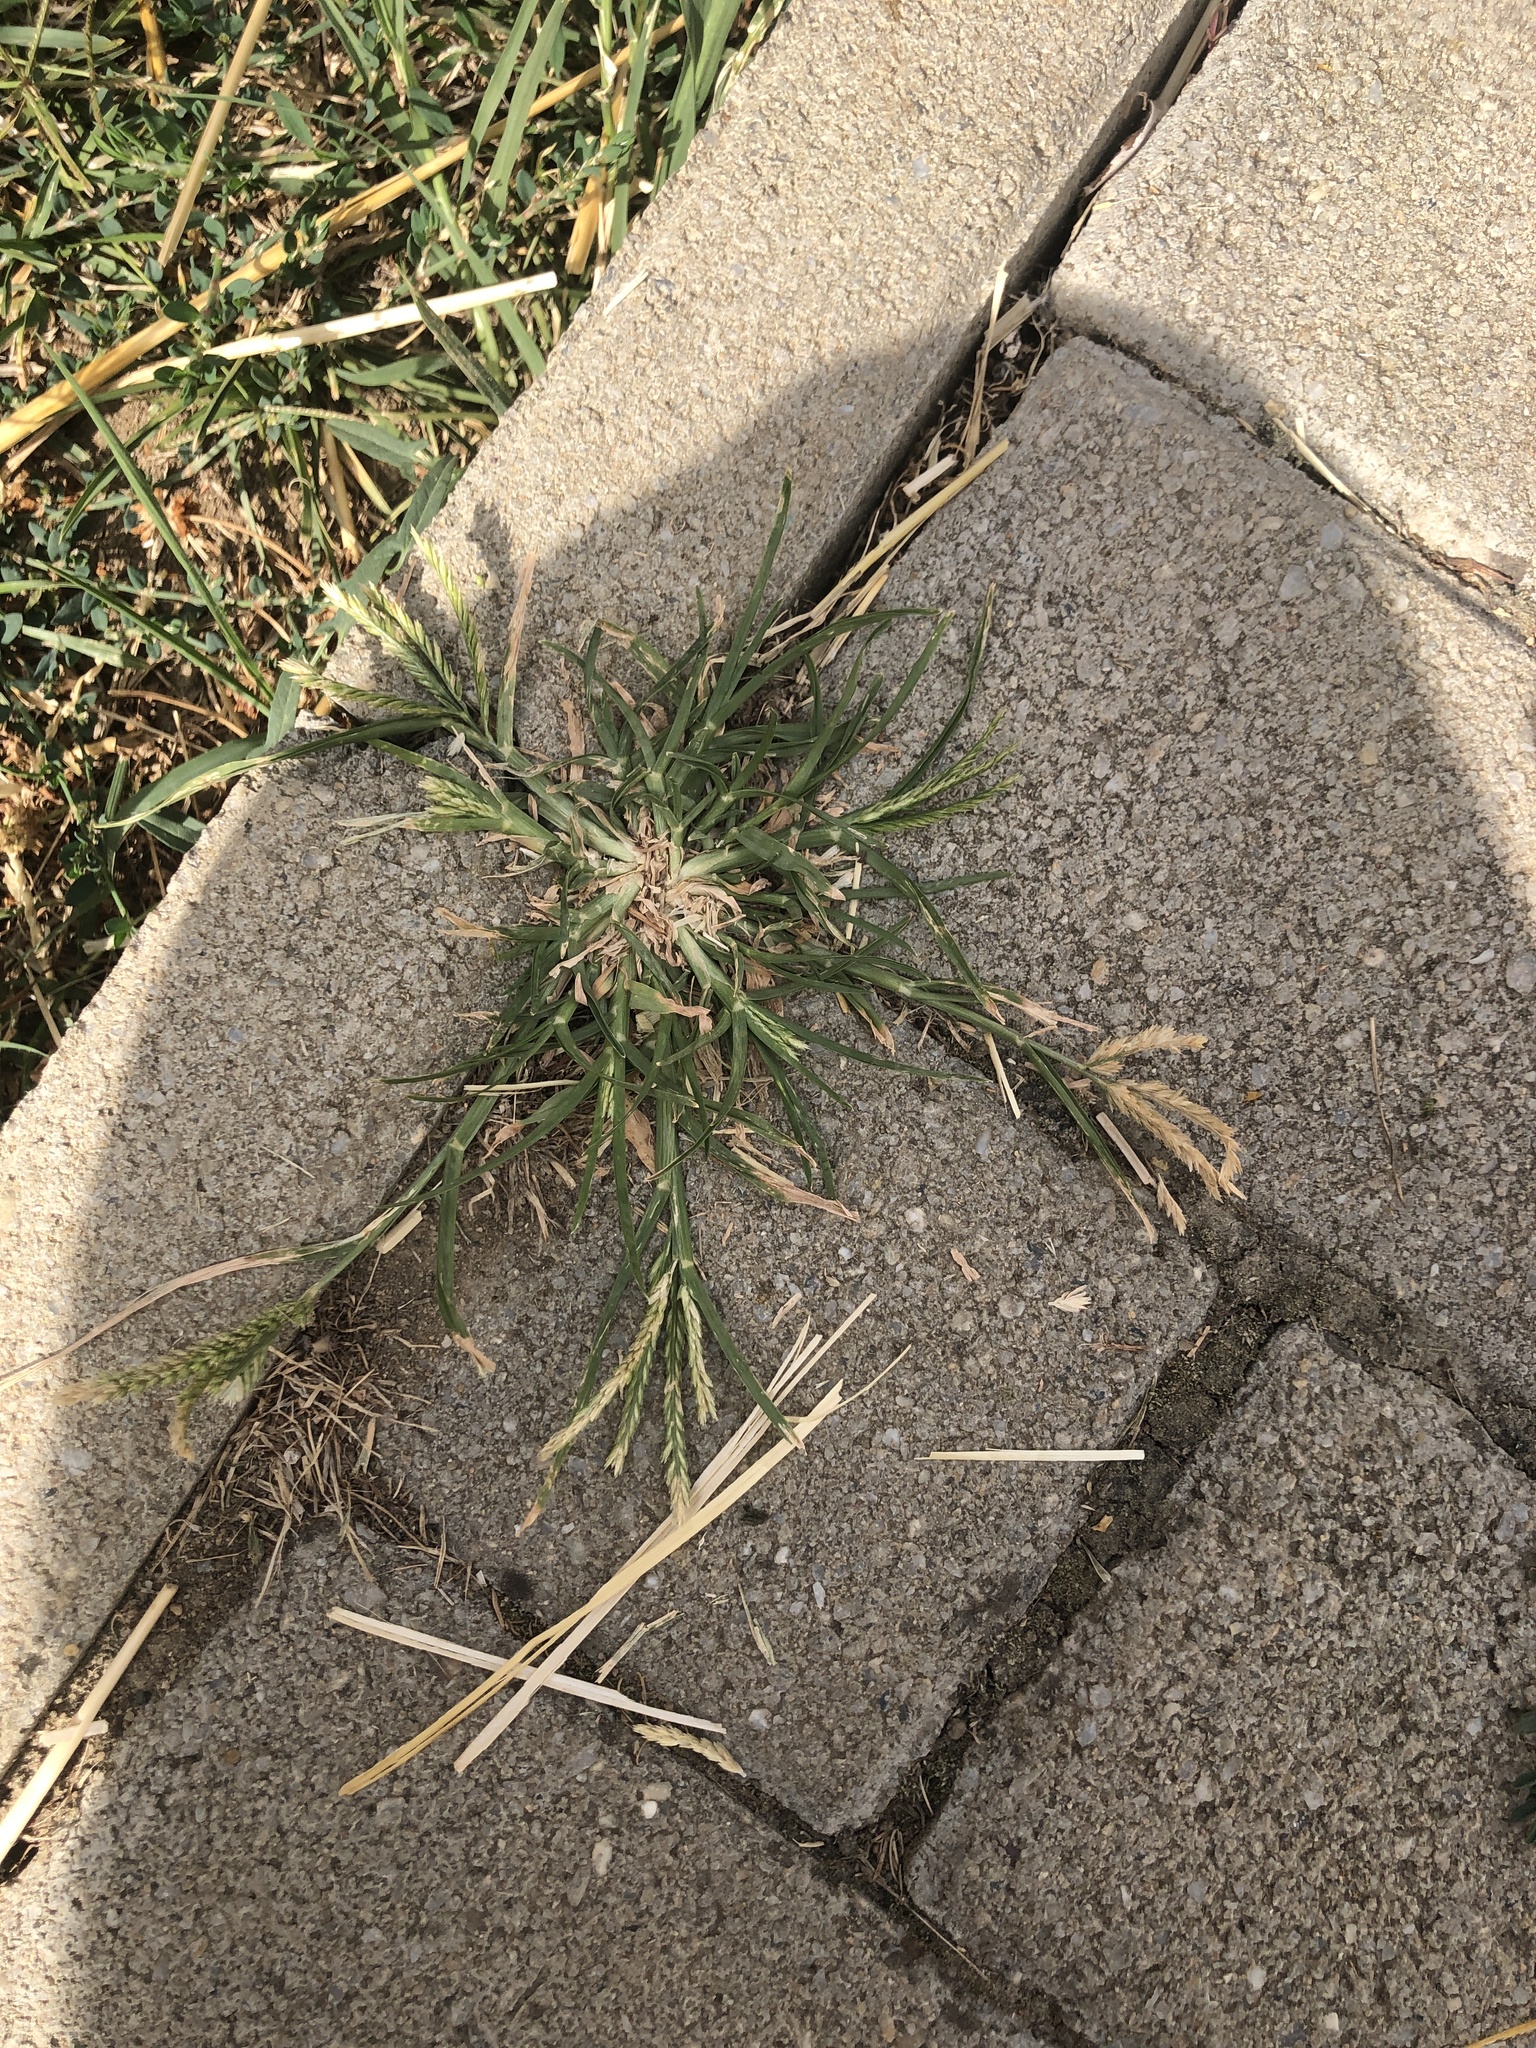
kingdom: Plantae
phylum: Tracheophyta
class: Liliopsida
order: Poales
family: Poaceae
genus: Eleusine
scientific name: Eleusine indica
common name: Yard-grass
